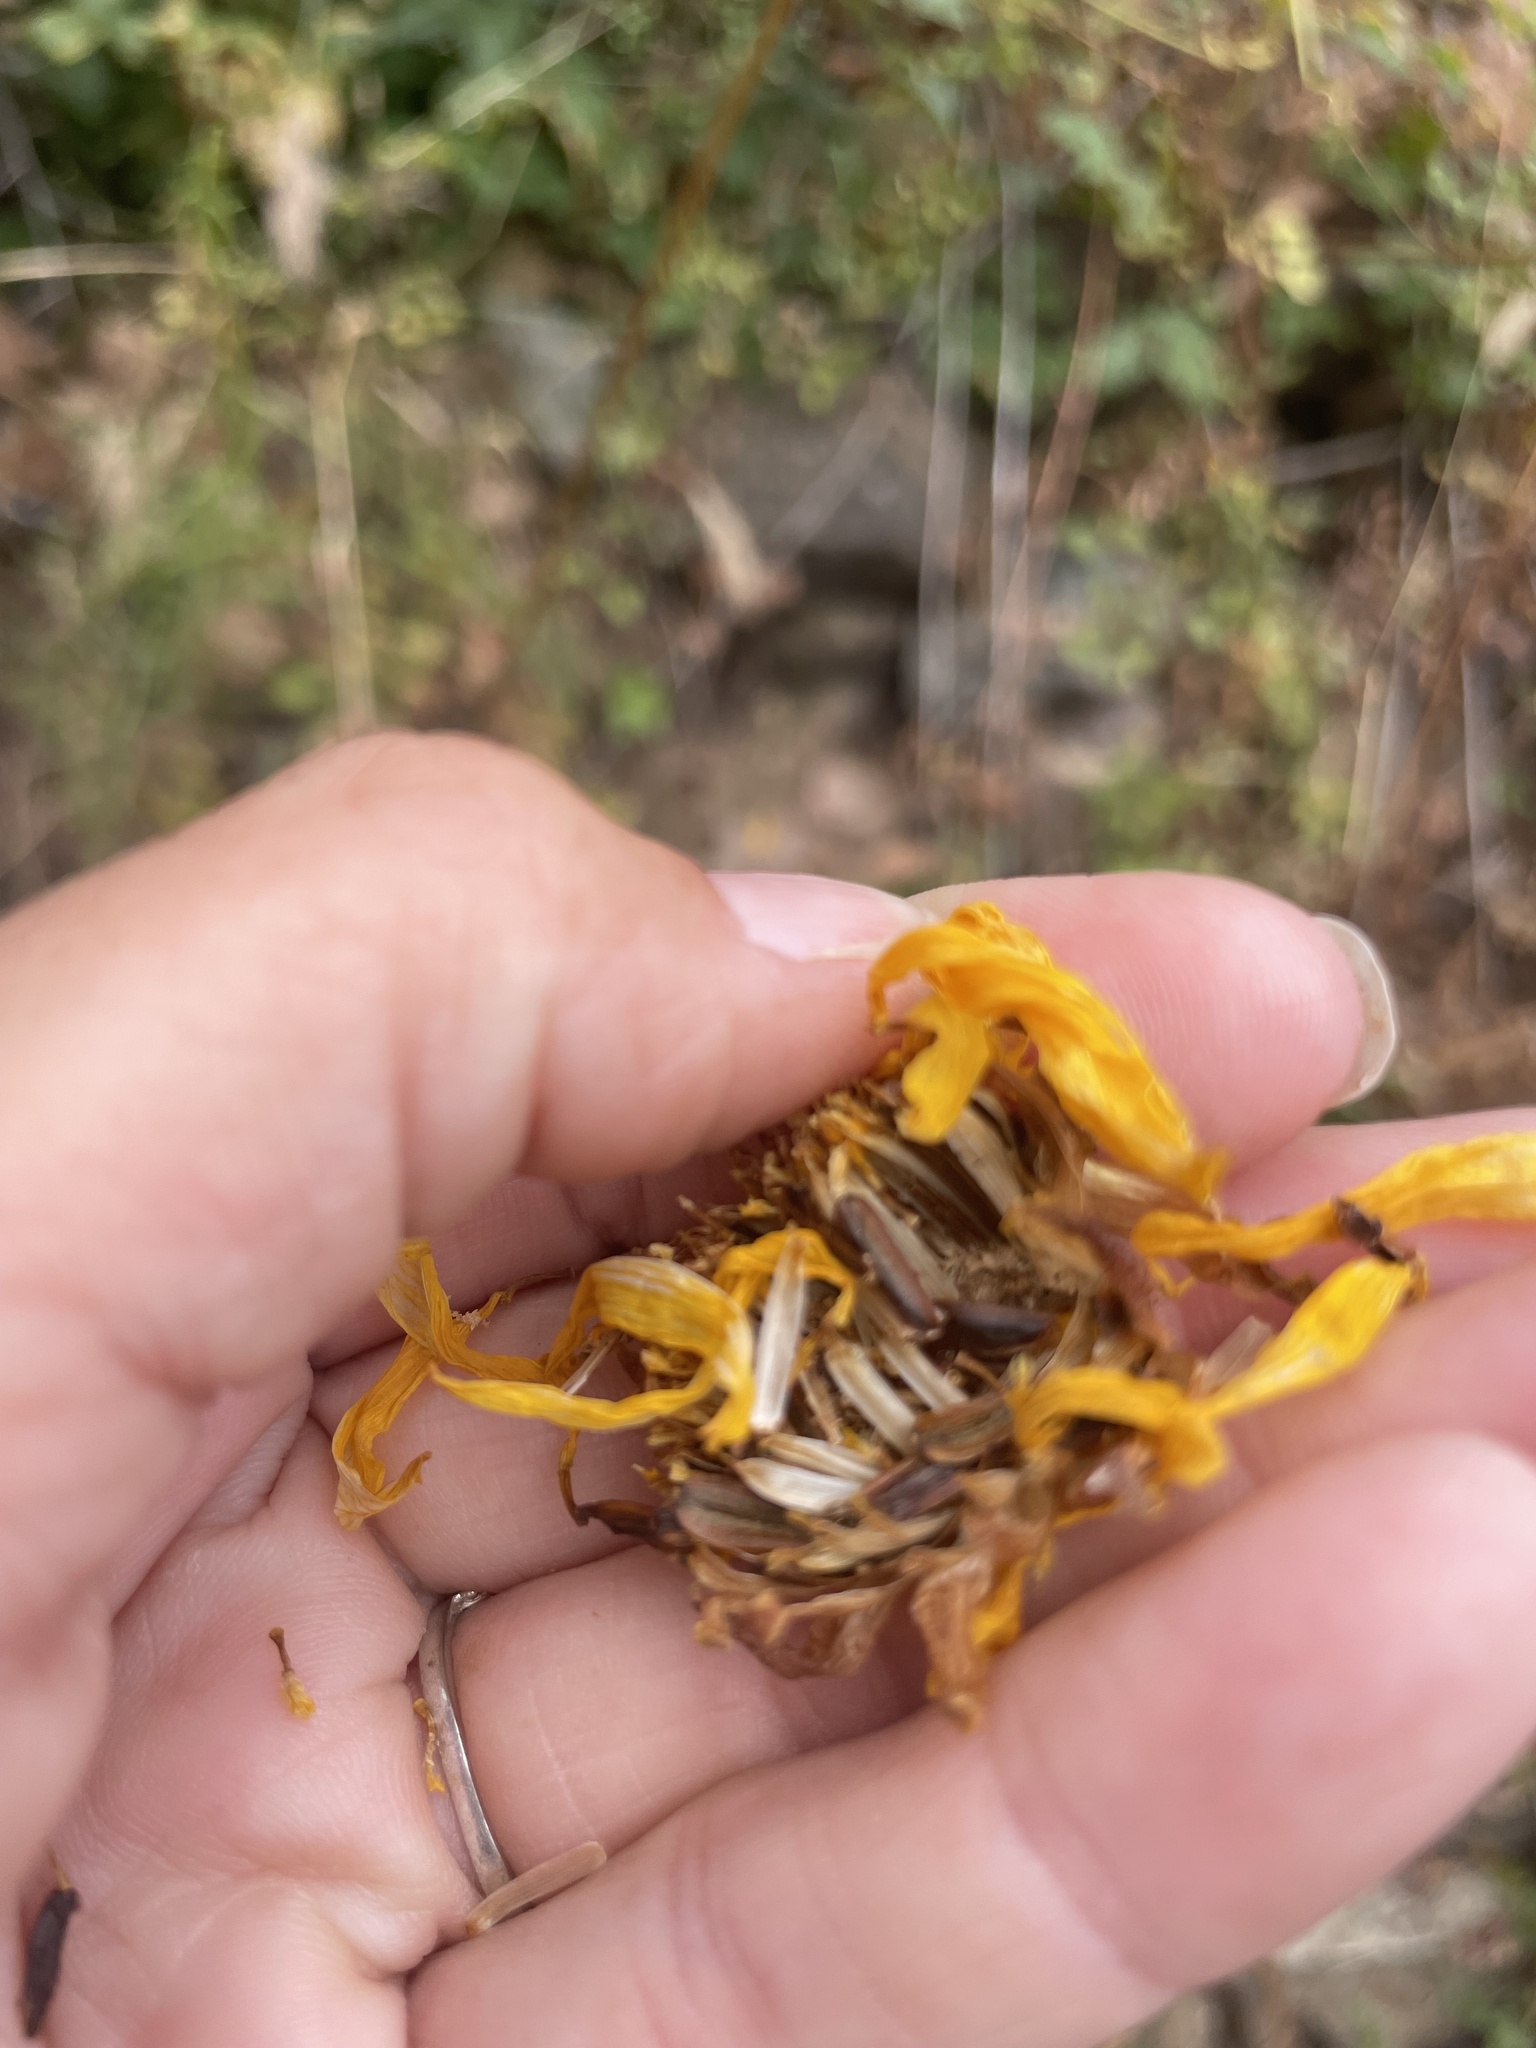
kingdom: Plantae
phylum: Tracheophyta
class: Magnoliopsida
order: Asterales
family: Asteraceae
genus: Coreopsis
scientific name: Coreopsis maritima
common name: Sea-dahlia
